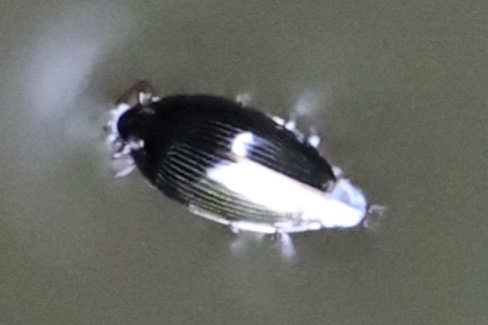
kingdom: Animalia
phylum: Arthropoda
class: Insecta
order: Coleoptera
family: Gyrinidae
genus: Gyrinus
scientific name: Gyrinus
